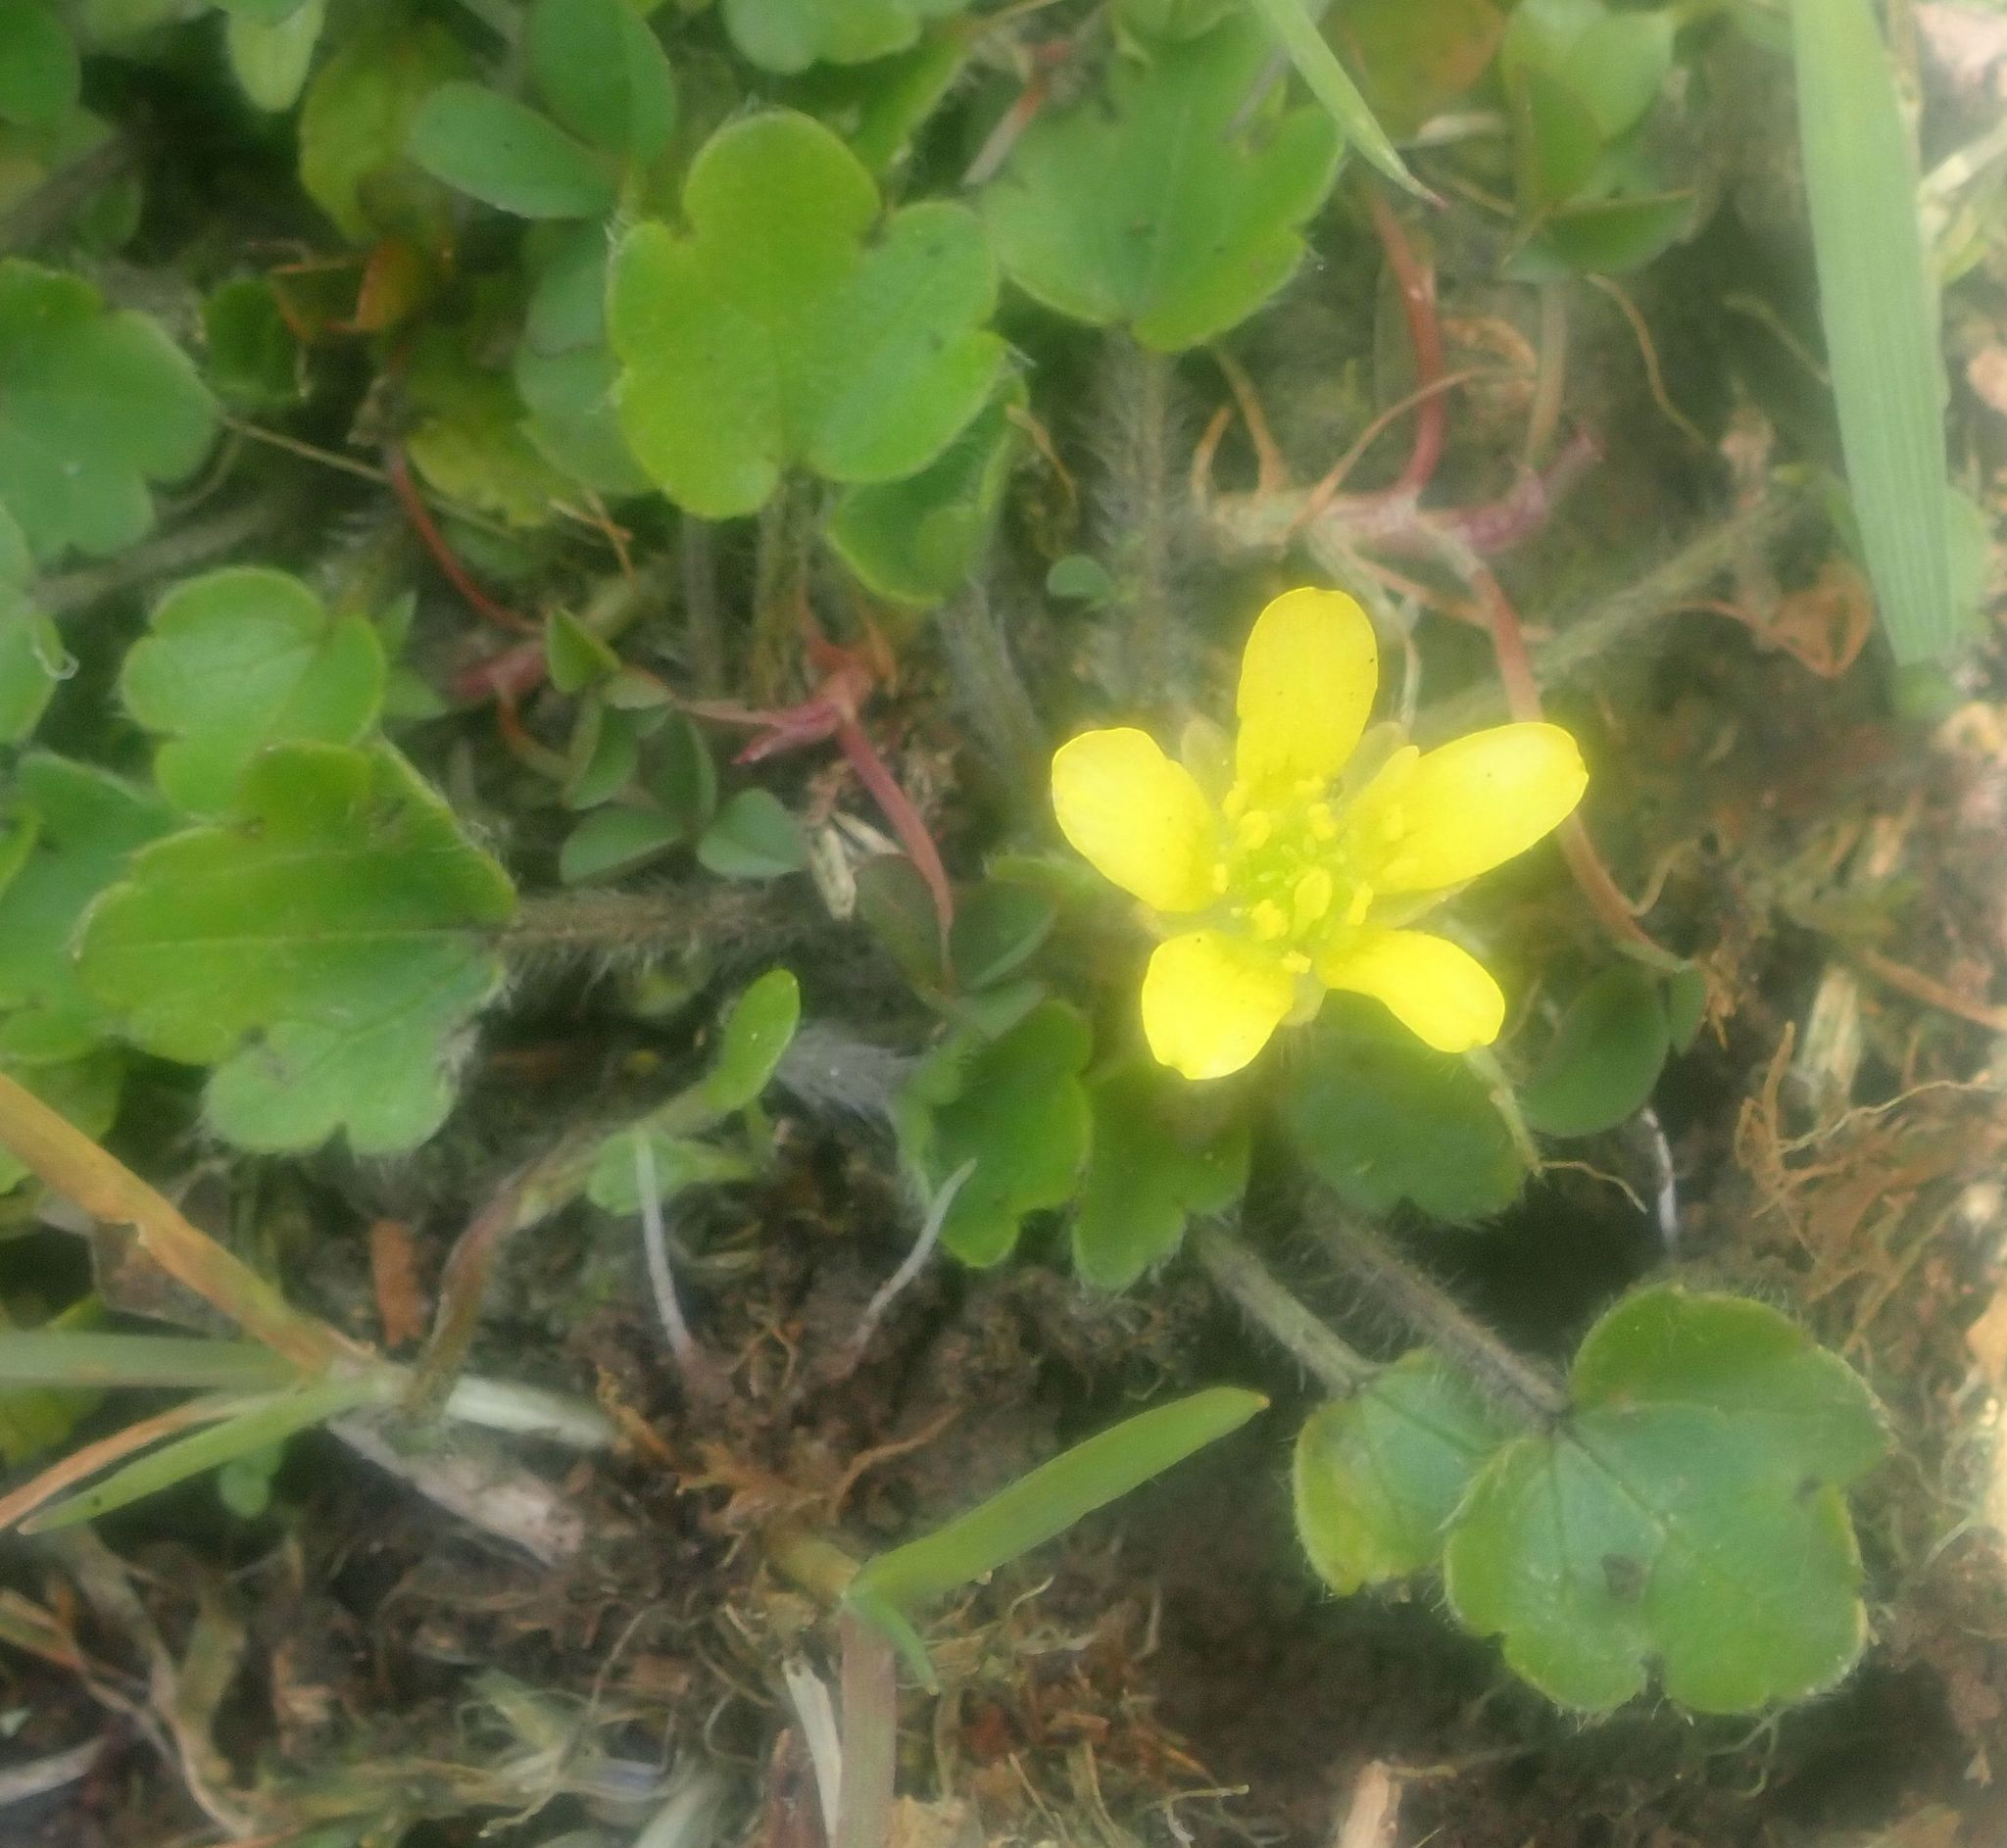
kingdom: Plantae
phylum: Tracheophyta
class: Magnoliopsida
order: Ranunculales
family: Ranunculaceae
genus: Ranunculus
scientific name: Ranunculus foliosus
